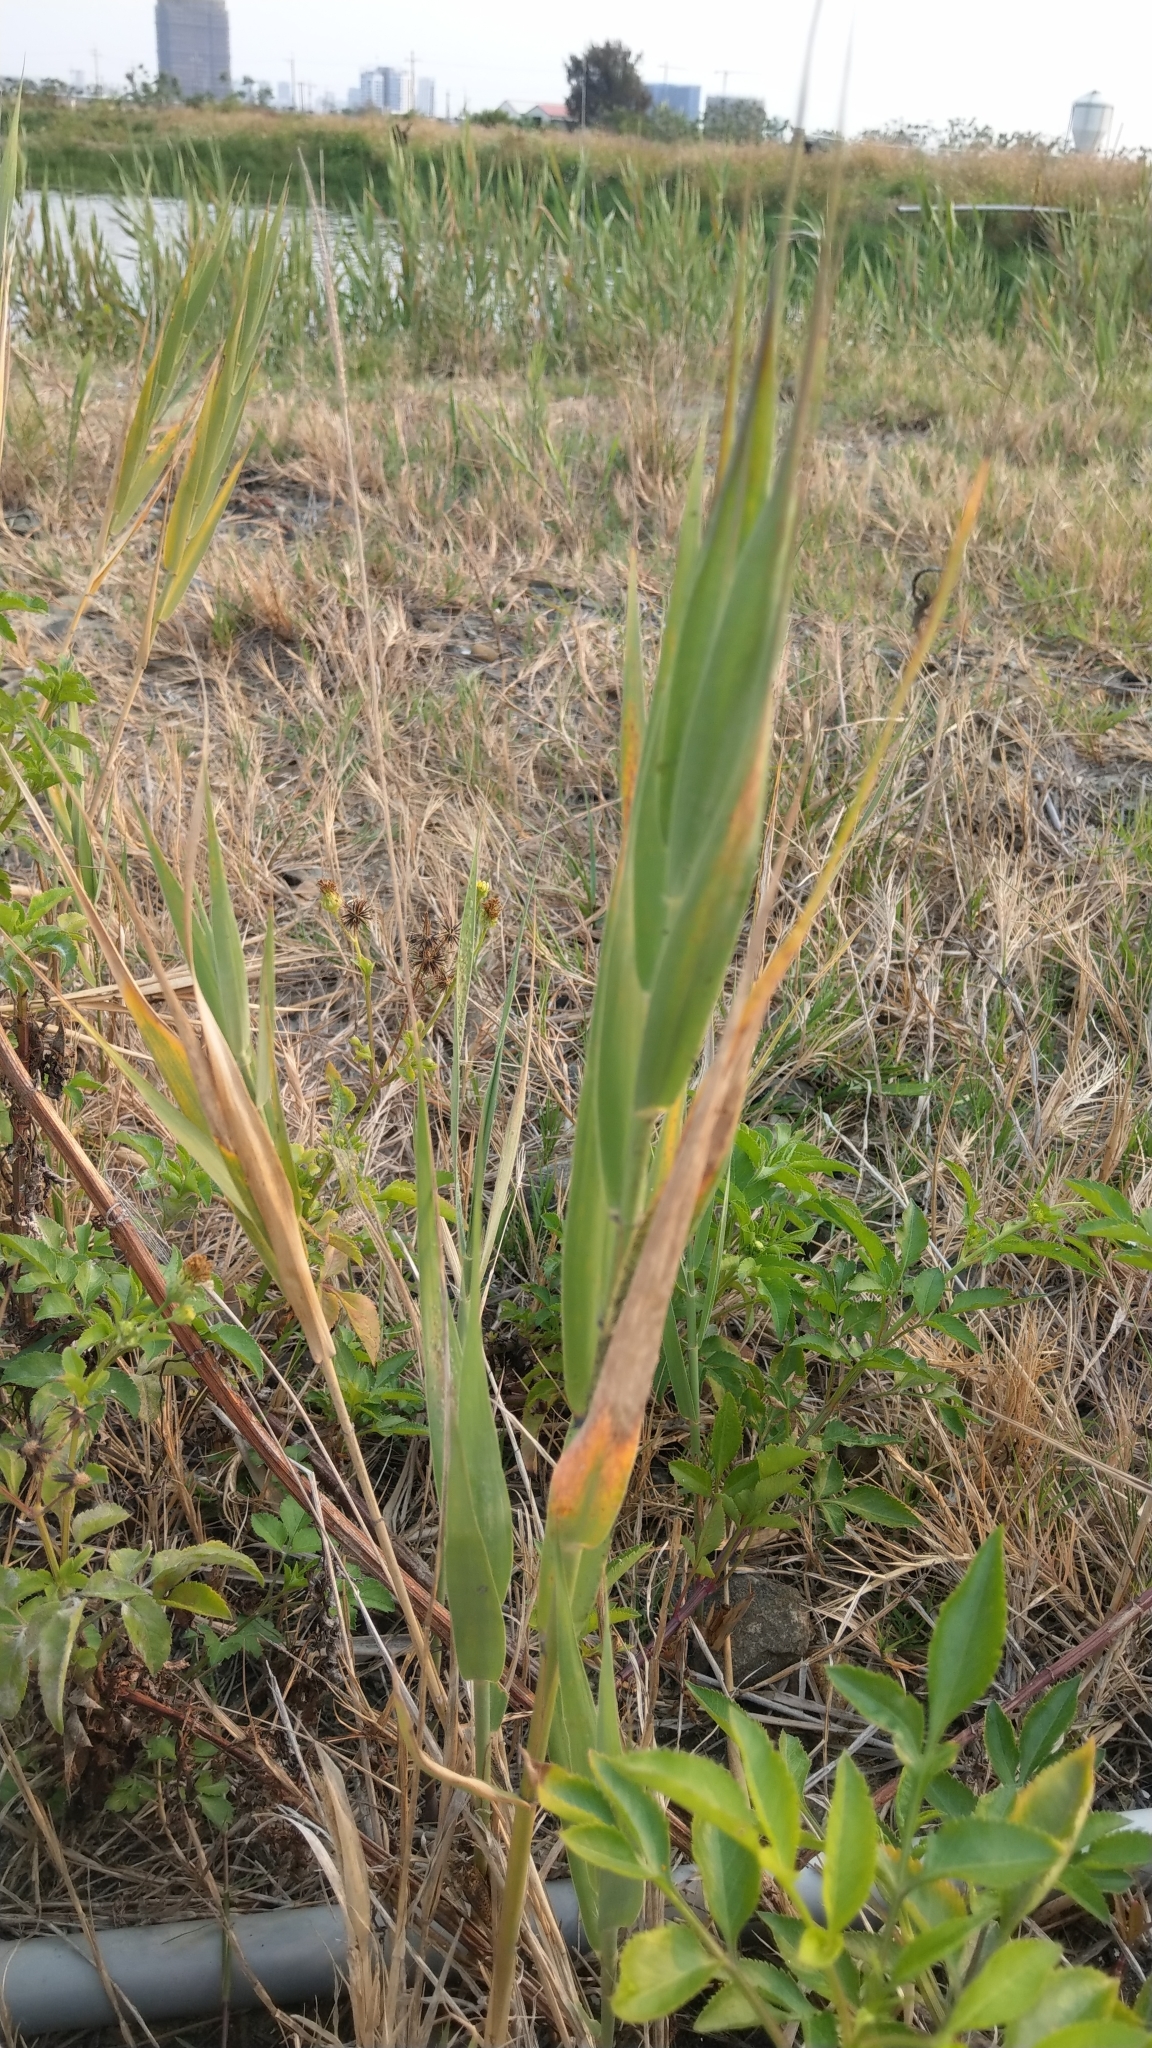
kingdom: Plantae
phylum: Tracheophyta
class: Liliopsida
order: Poales
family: Poaceae
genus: Phragmites
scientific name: Phragmites australis
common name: Common reed
